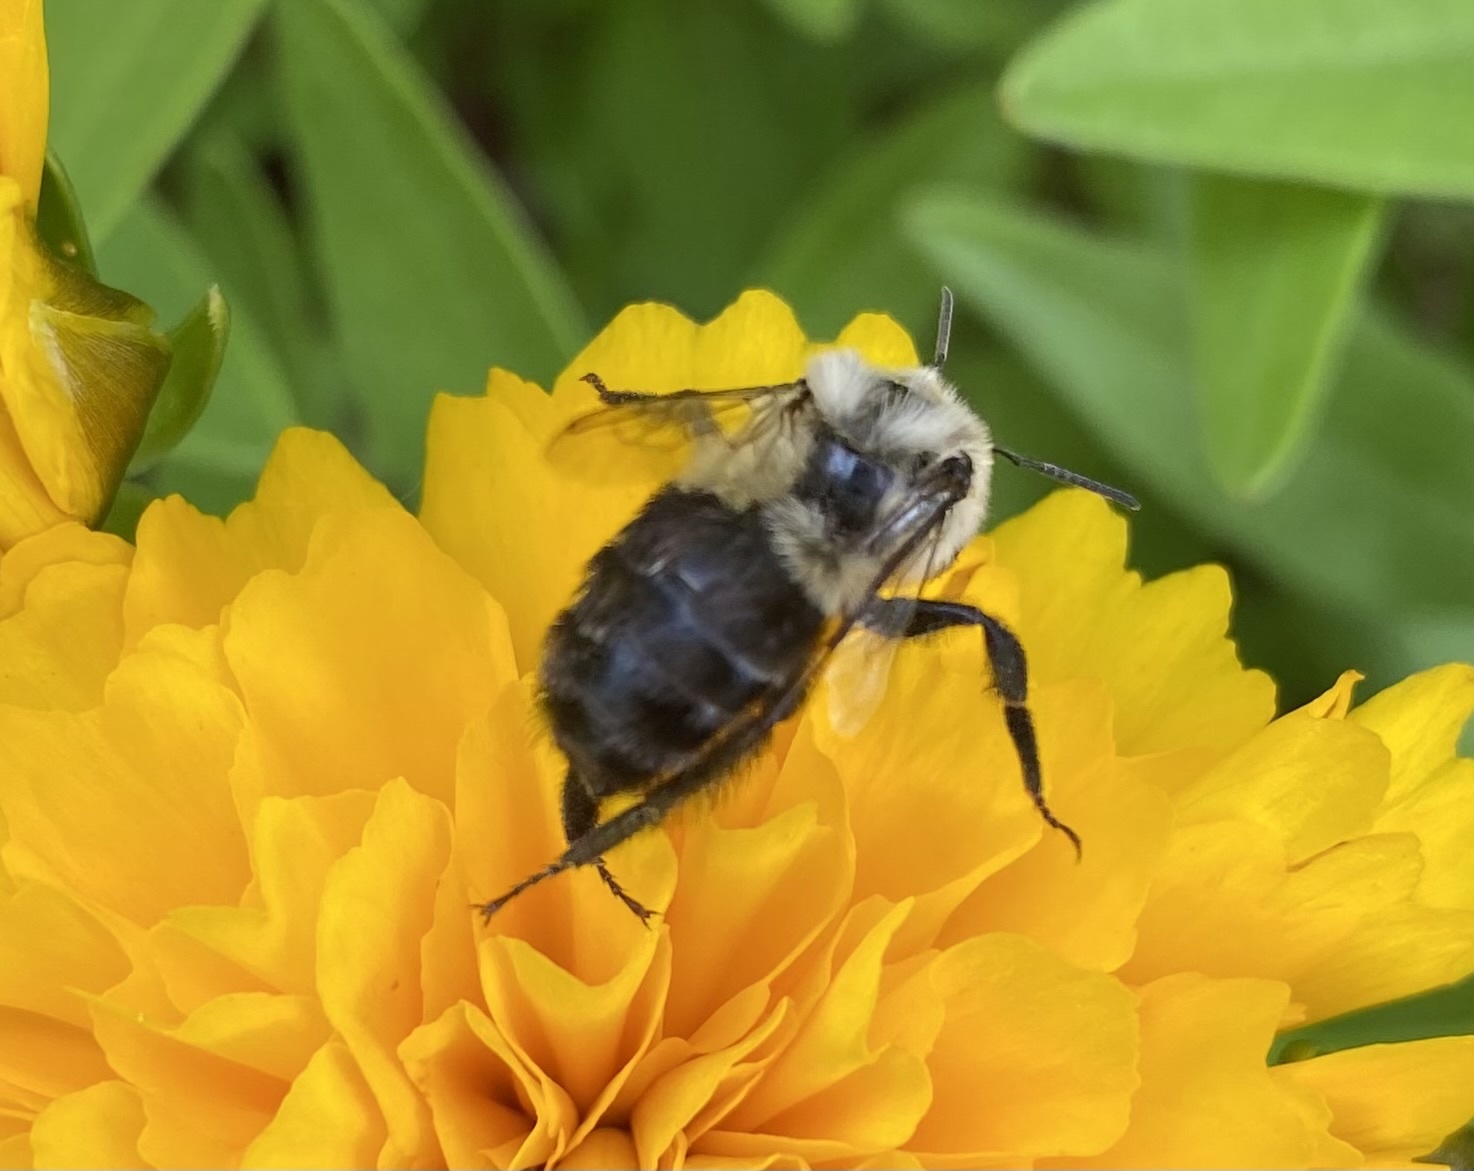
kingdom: Animalia
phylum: Arthropoda
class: Insecta
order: Hymenoptera
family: Apidae
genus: Bombus
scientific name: Bombus impatiens
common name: Common eastern bumble bee
